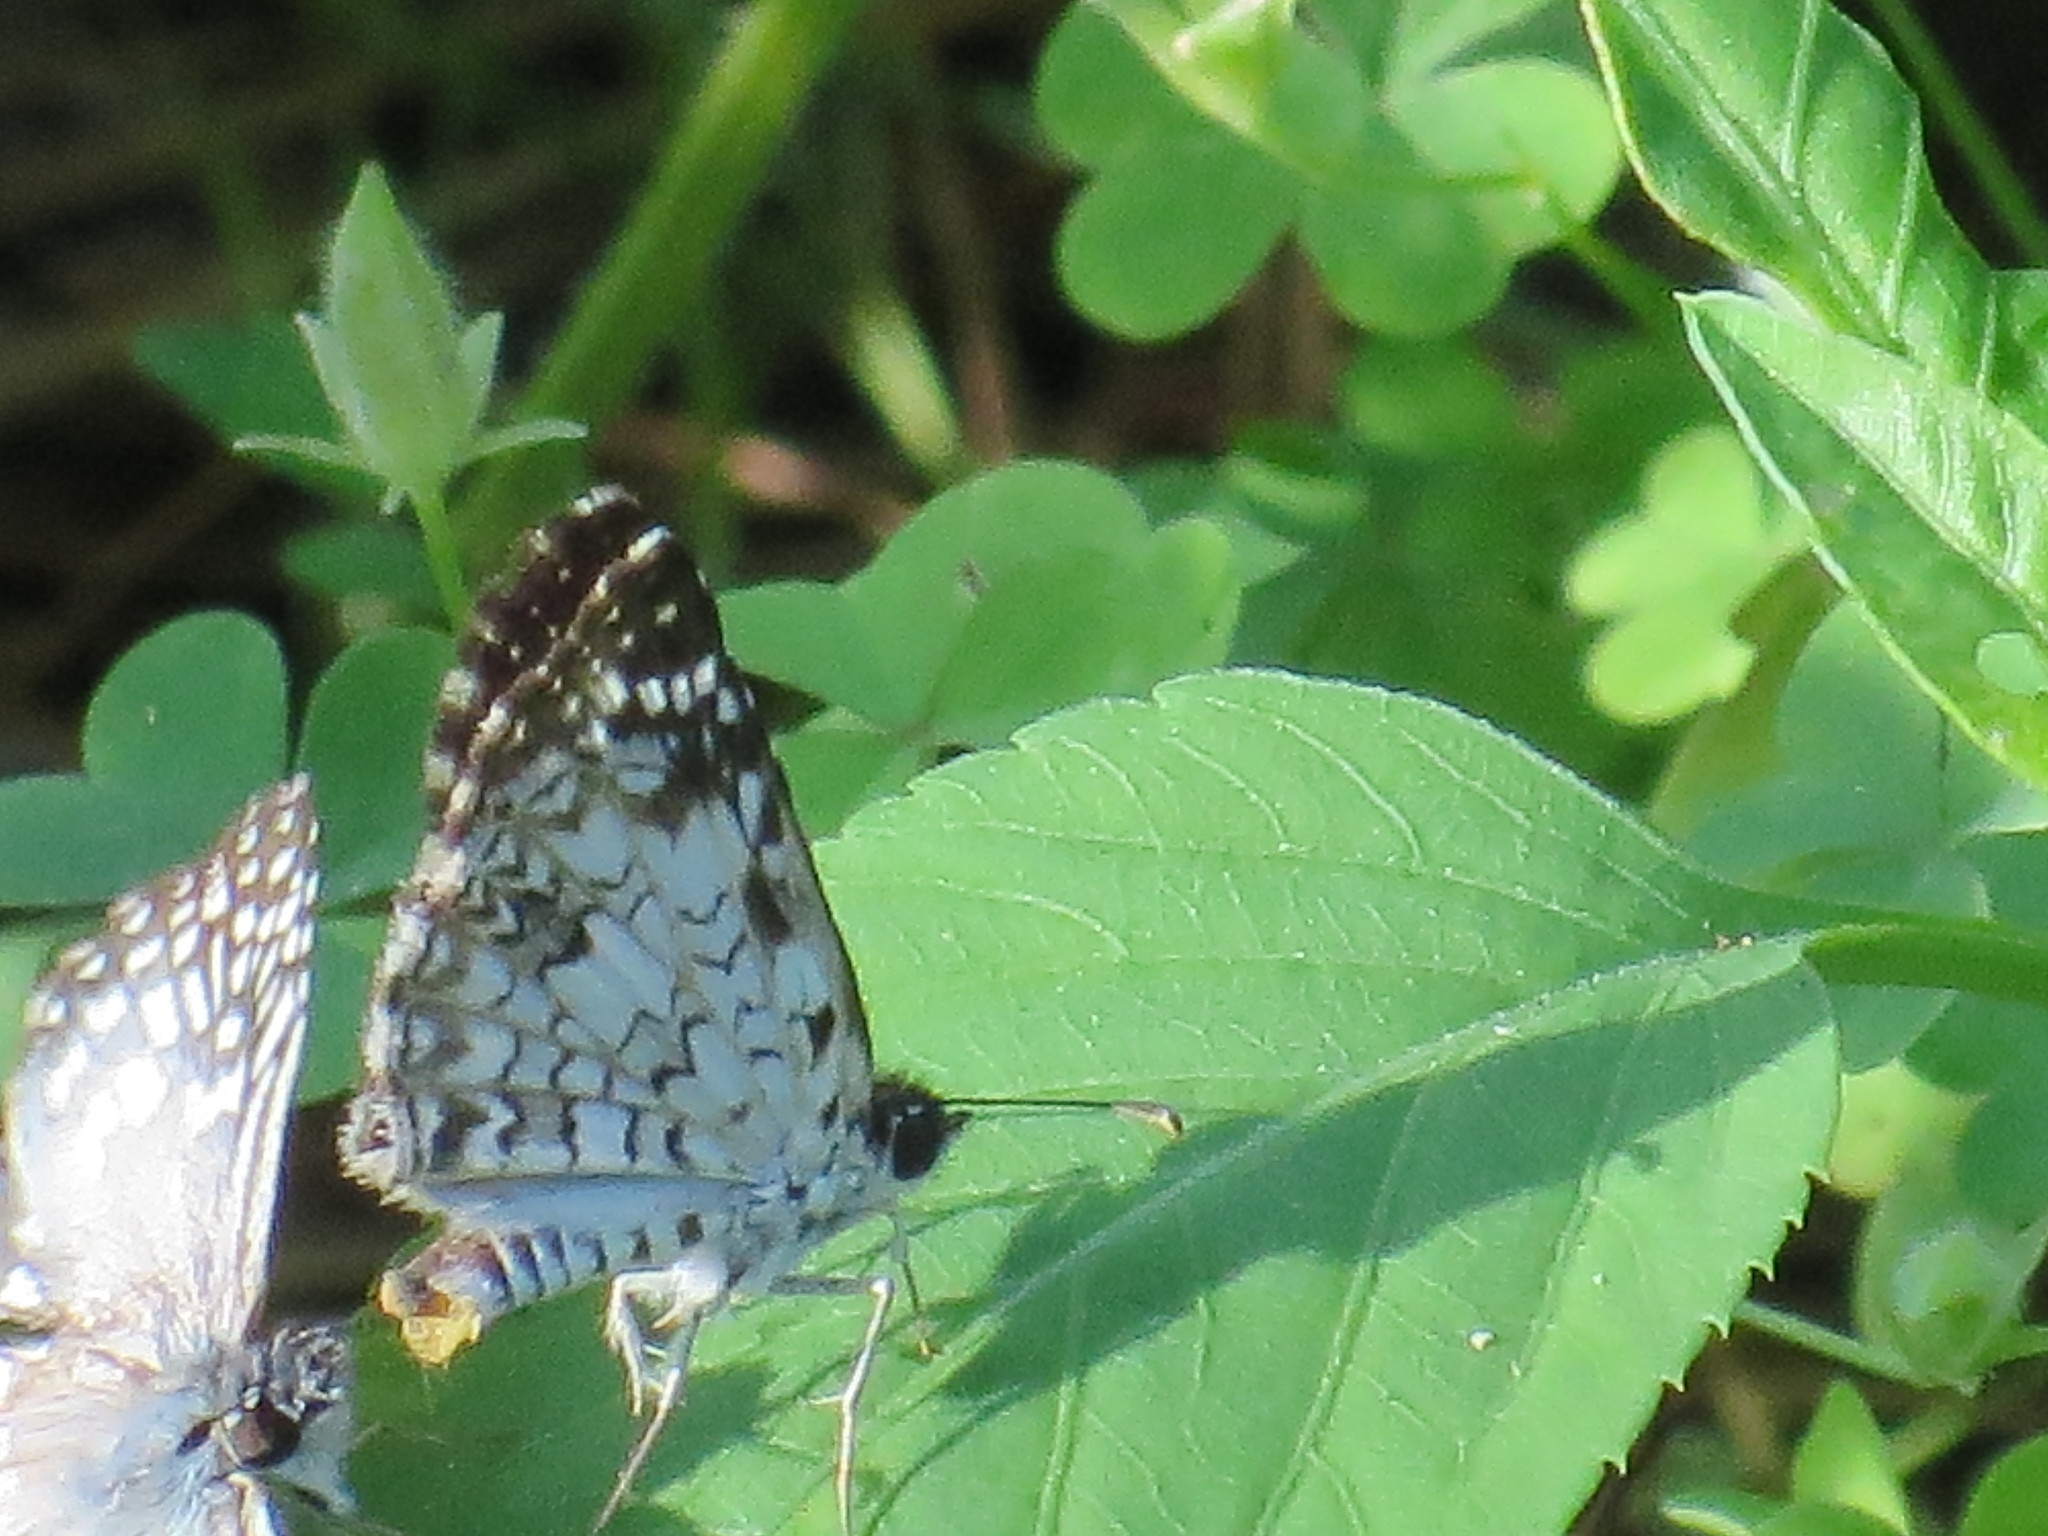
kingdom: Animalia
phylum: Arthropoda
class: Insecta
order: Lepidoptera
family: Hesperiidae
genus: Pyrgus
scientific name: Pyrgus oileus
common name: Tropical checkered-skipper
